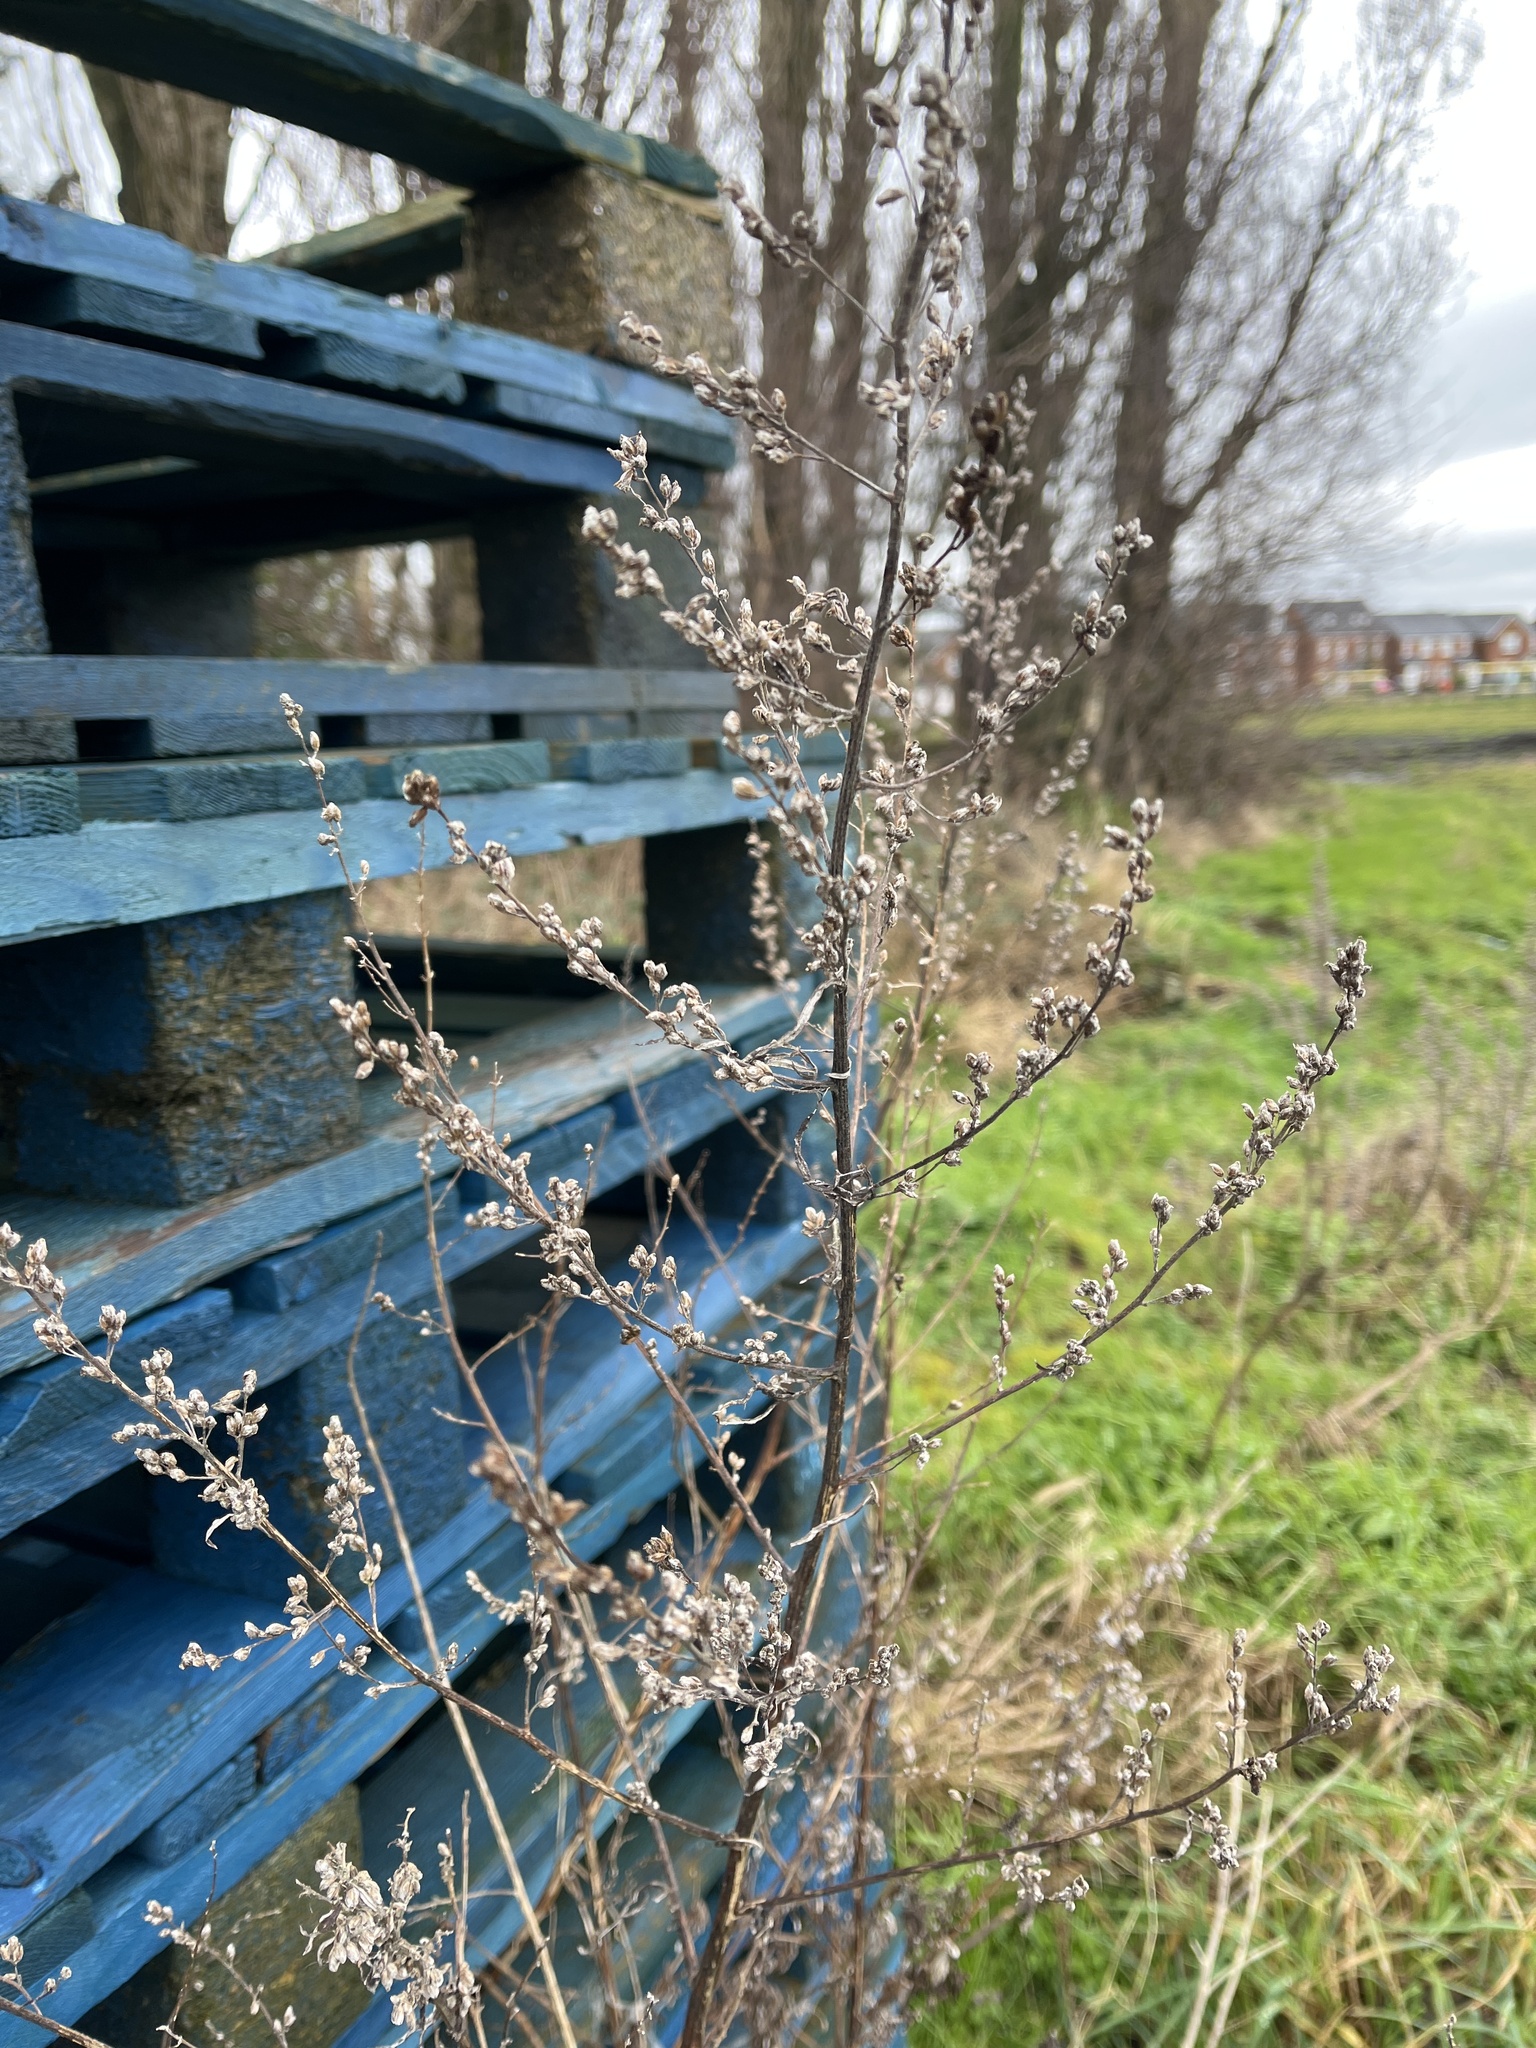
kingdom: Plantae
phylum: Tracheophyta
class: Magnoliopsida
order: Asterales
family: Asteraceae
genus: Artemisia
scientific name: Artemisia vulgaris
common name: Mugwort
